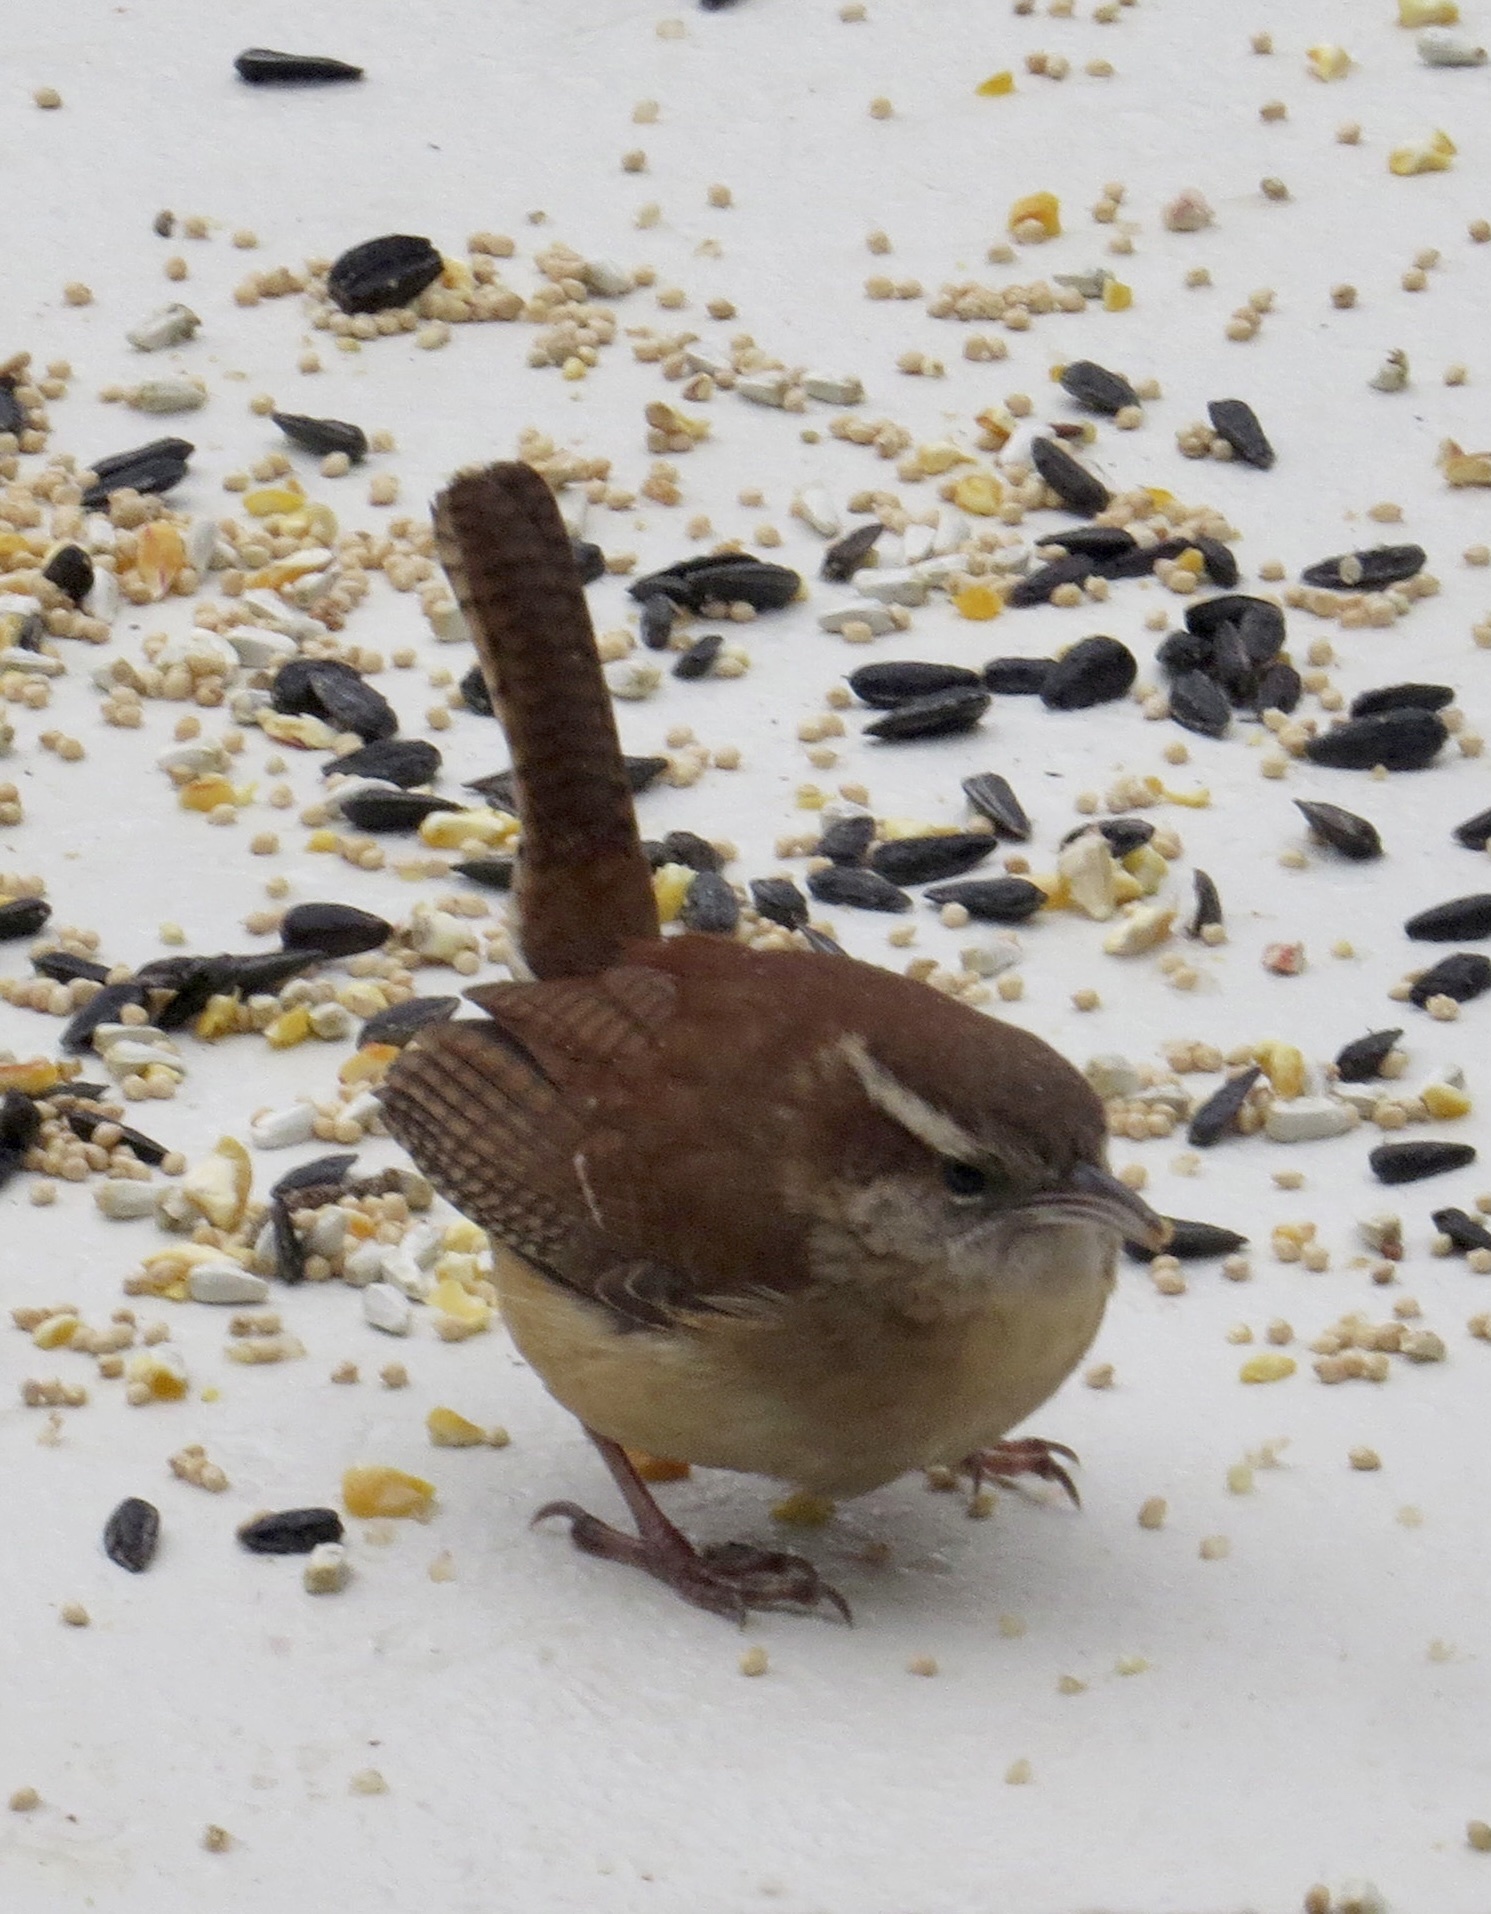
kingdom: Animalia
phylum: Chordata
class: Aves
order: Passeriformes
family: Troglodytidae
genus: Thryothorus
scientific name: Thryothorus ludovicianus
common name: Carolina wren
